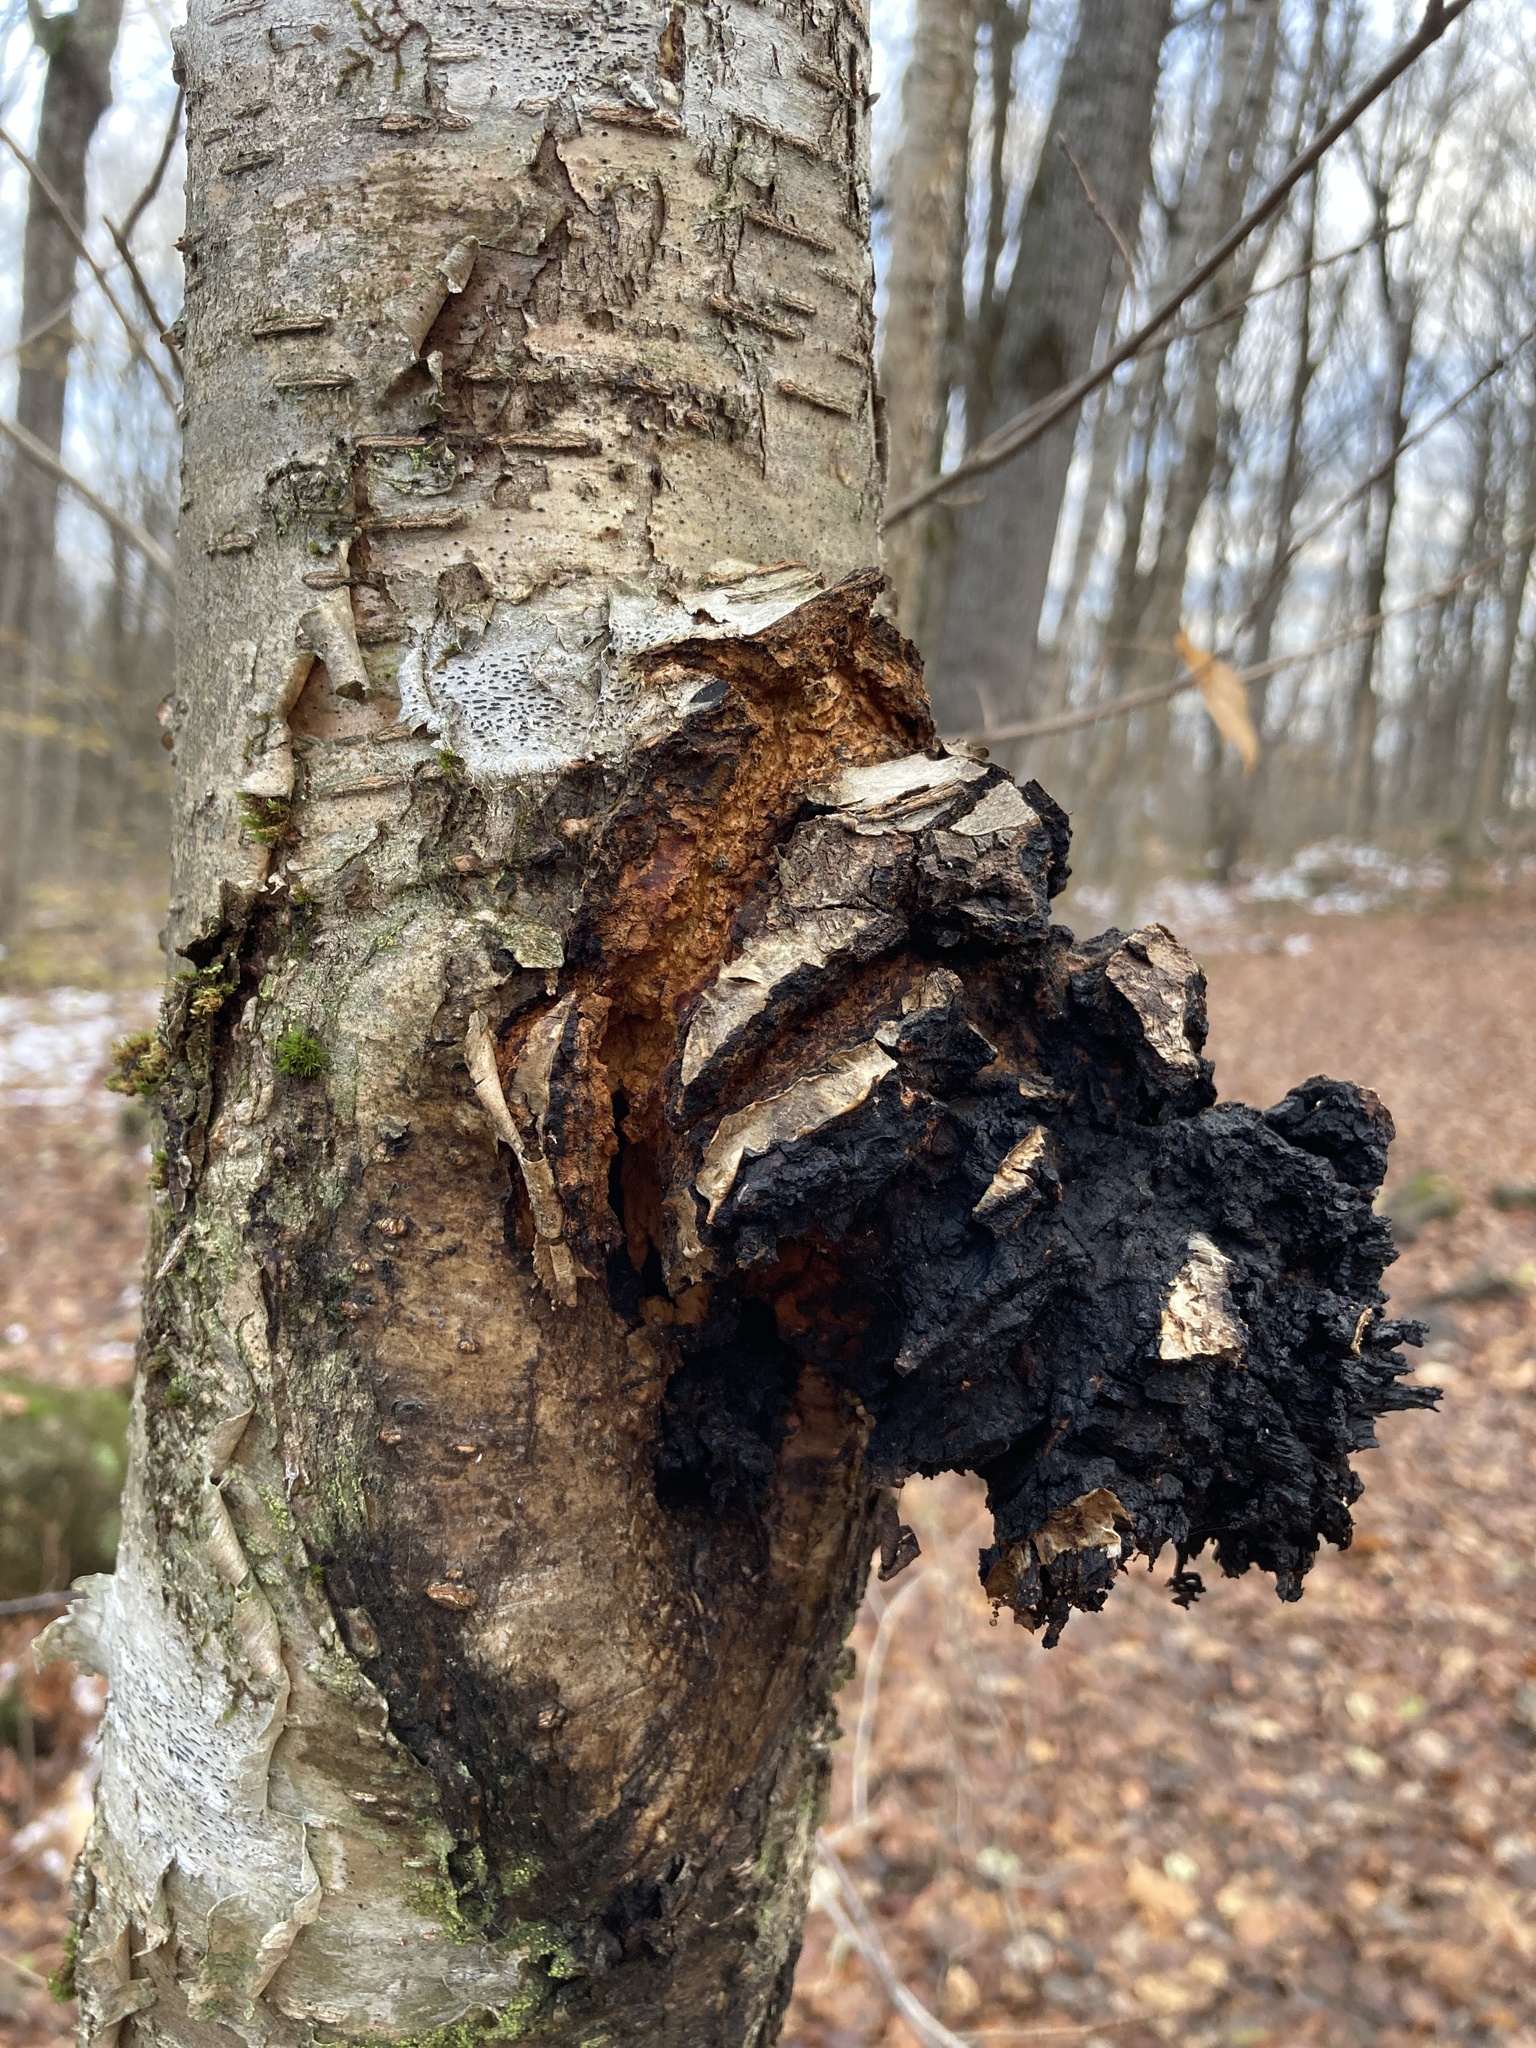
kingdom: Fungi
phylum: Basidiomycota
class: Agaricomycetes
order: Hymenochaetales
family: Hymenochaetaceae
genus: Inonotus
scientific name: Inonotus obliquus
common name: Chaga
